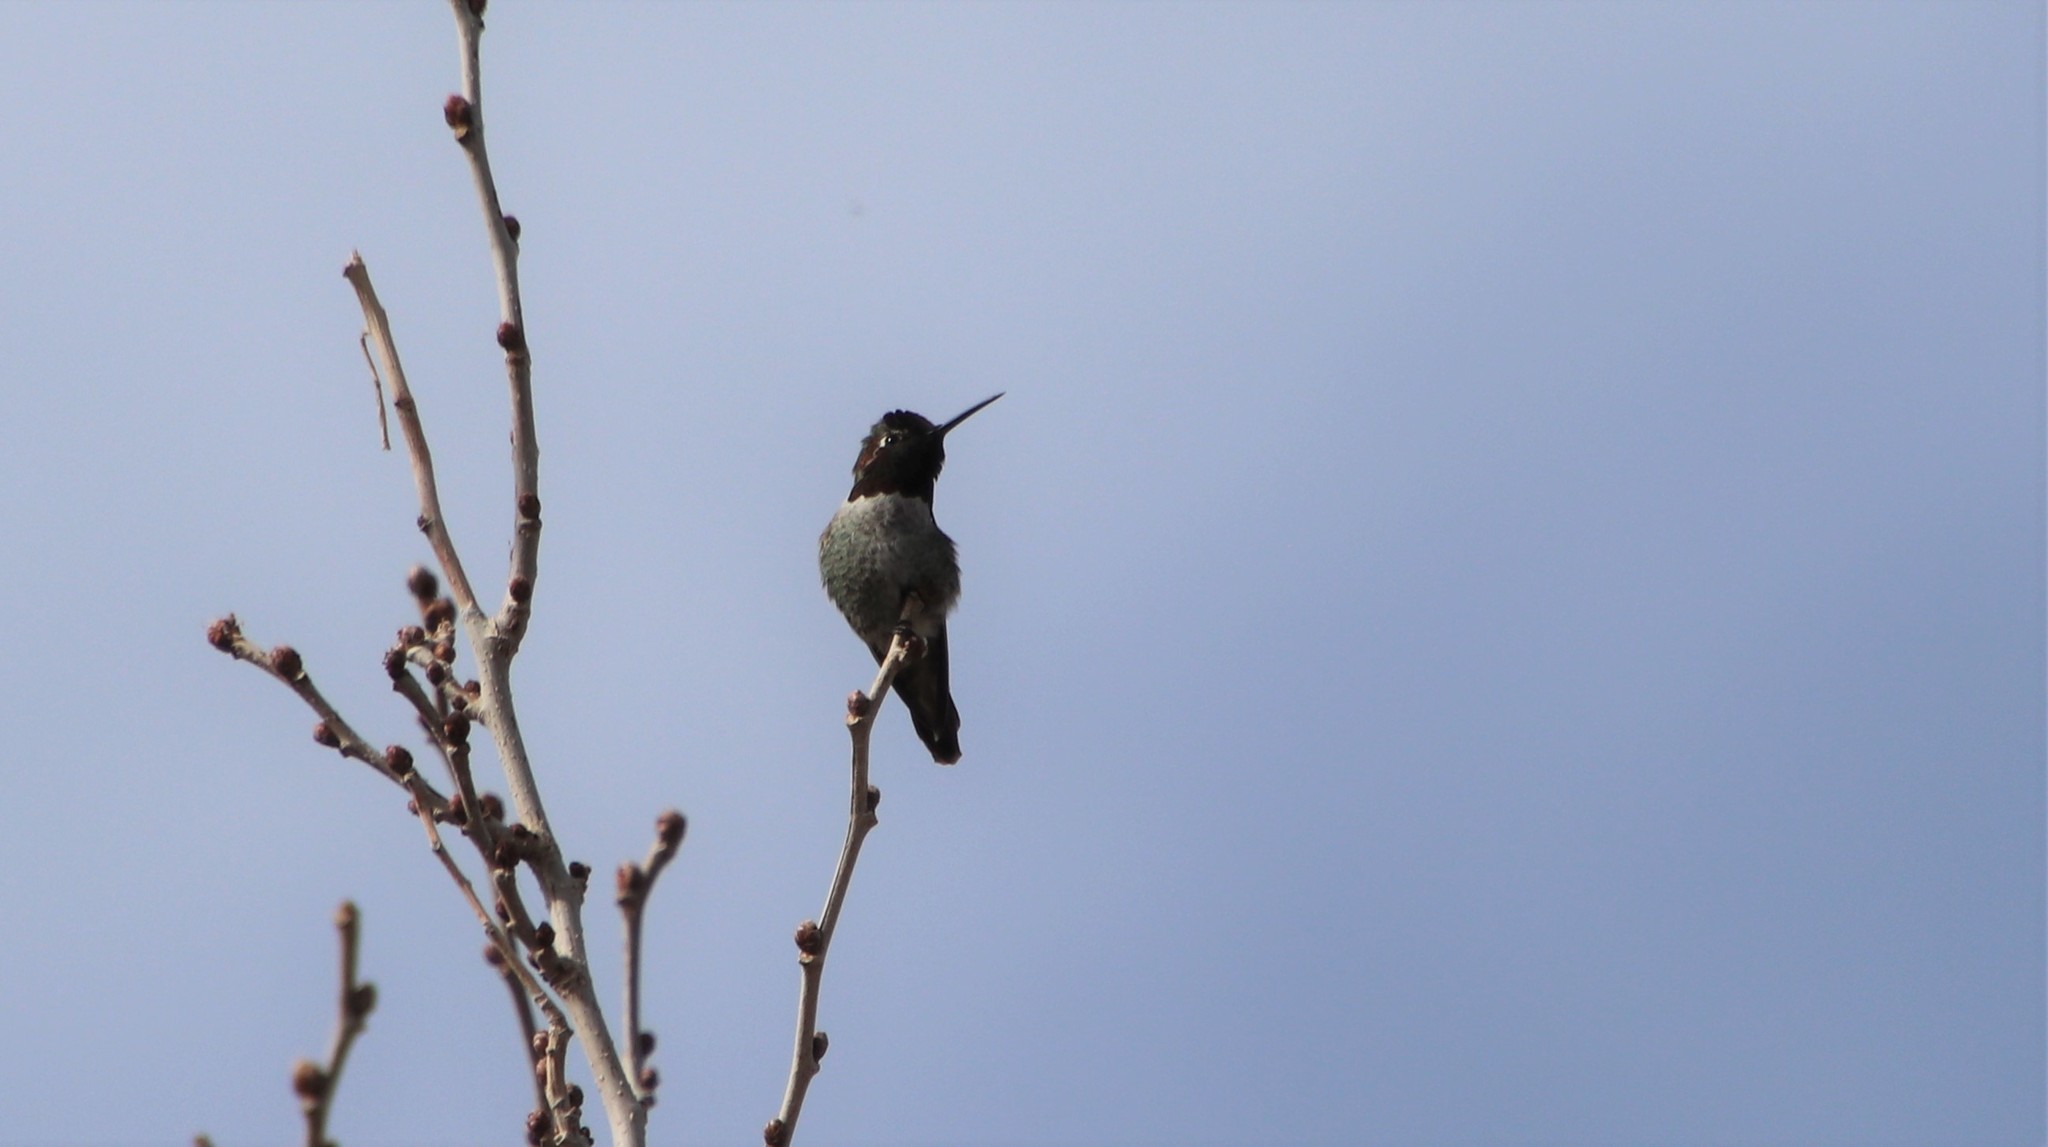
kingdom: Animalia
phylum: Chordata
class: Aves
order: Apodiformes
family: Trochilidae
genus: Calypte
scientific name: Calypte anna
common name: Anna's hummingbird
